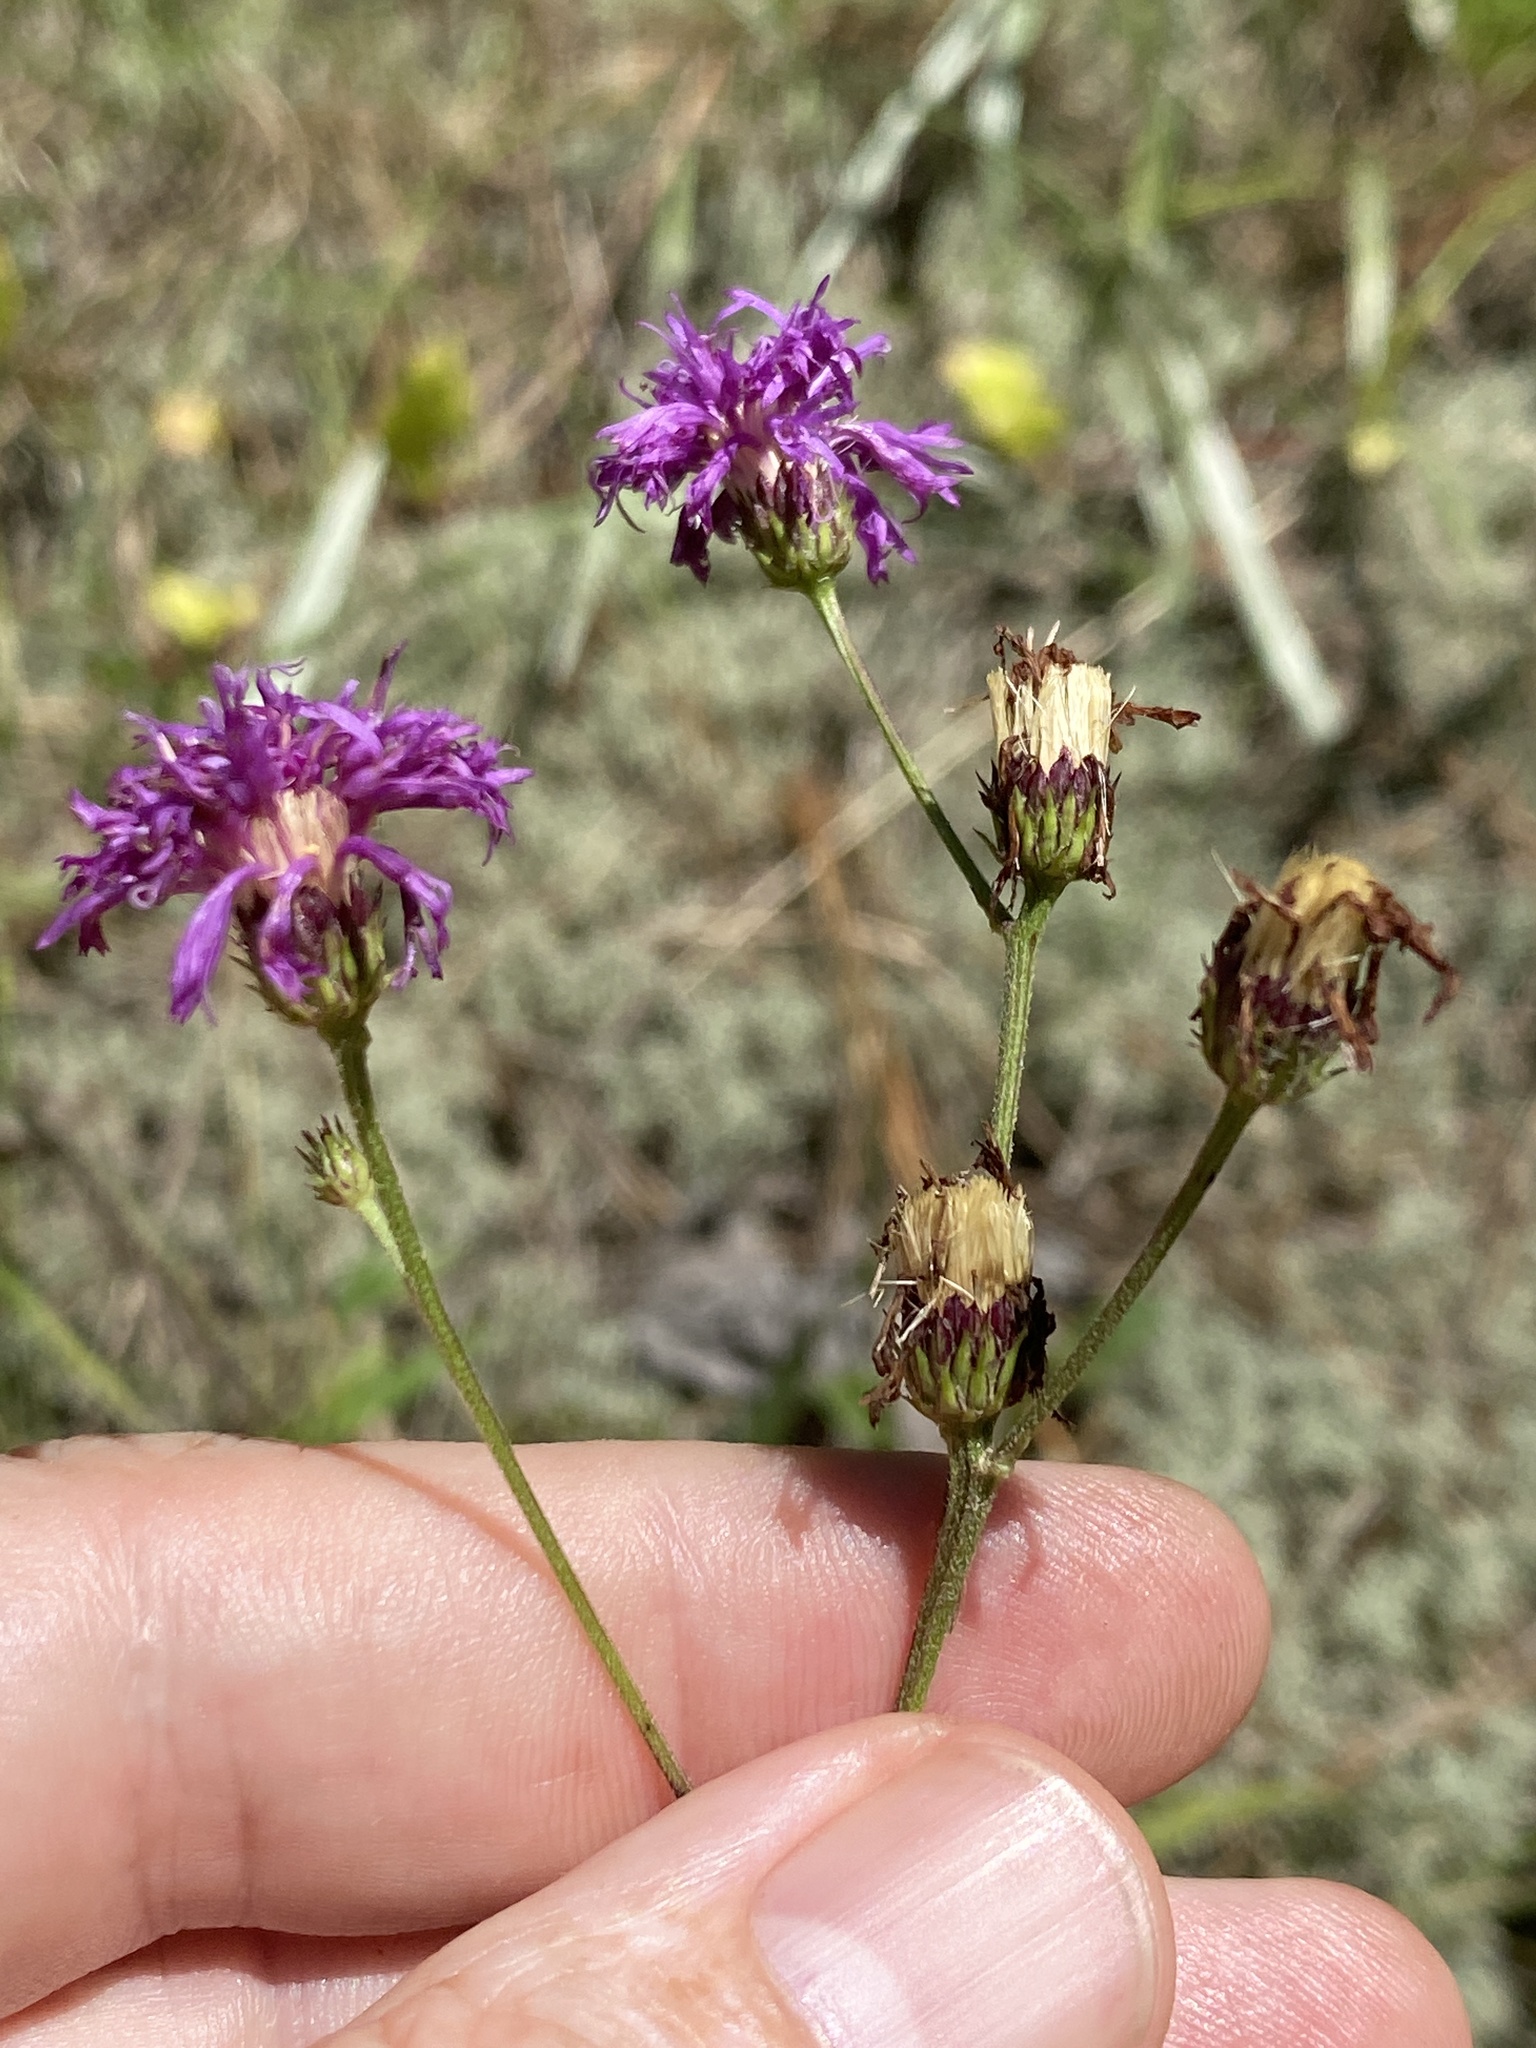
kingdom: Plantae
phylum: Tracheophyta
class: Magnoliopsida
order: Asterales
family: Asteraceae
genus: Vernonia
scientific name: Vernonia acaulis
